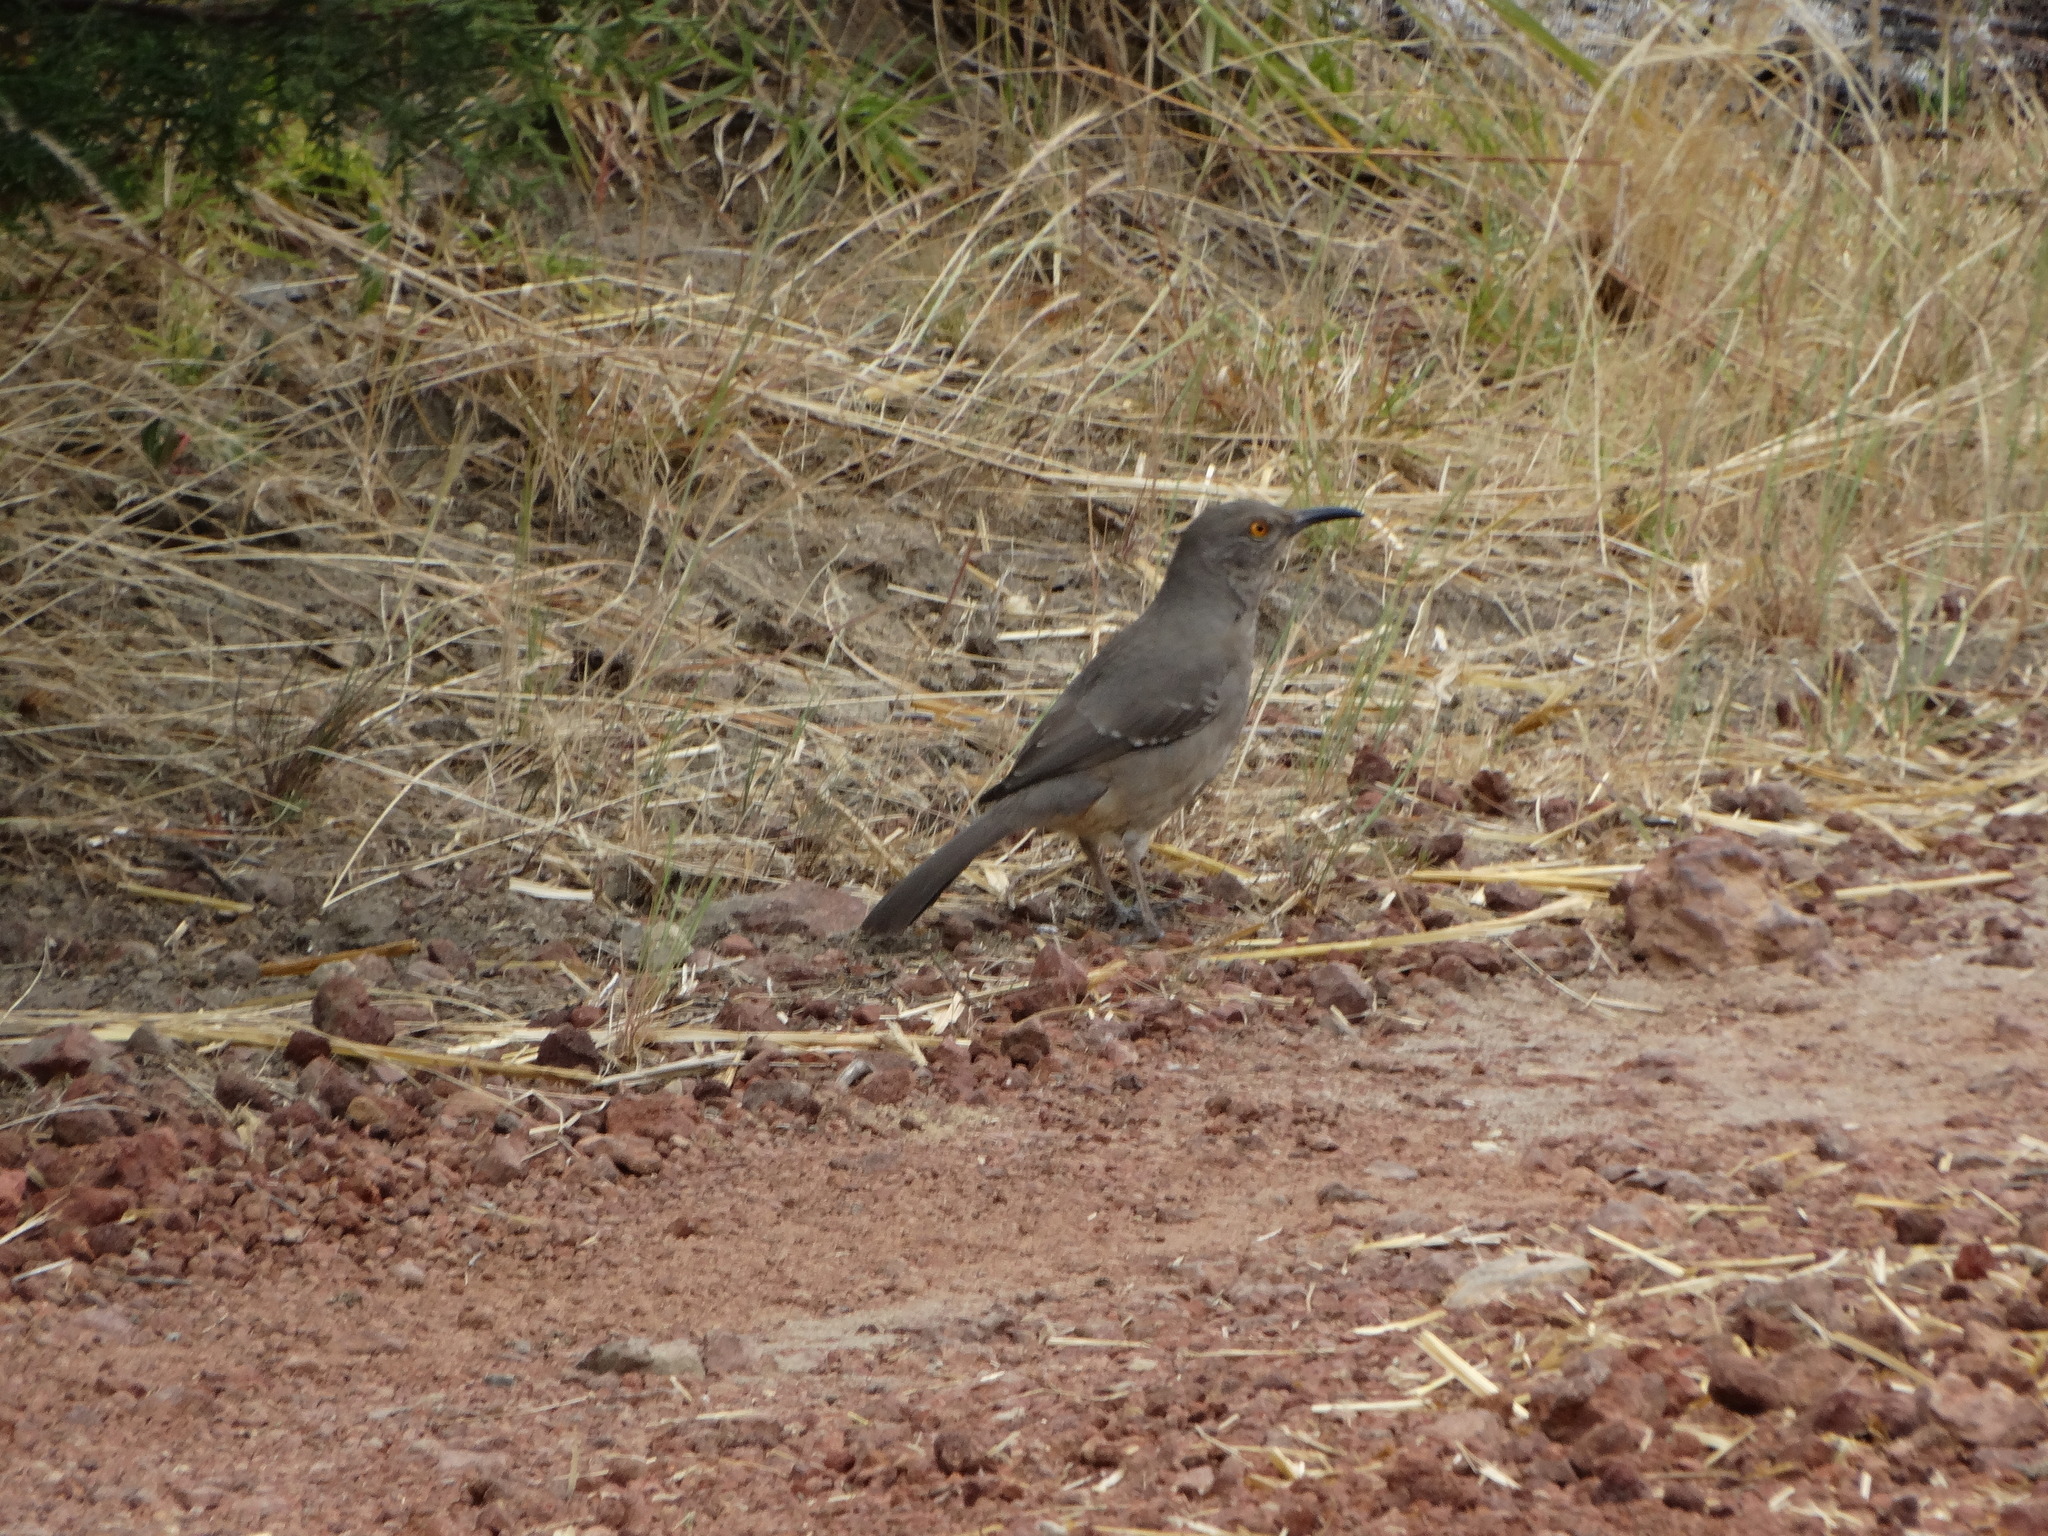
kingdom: Animalia
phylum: Chordata
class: Aves
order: Passeriformes
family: Mimidae
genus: Toxostoma
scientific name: Toxostoma curvirostre
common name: Curve-billed thrasher
